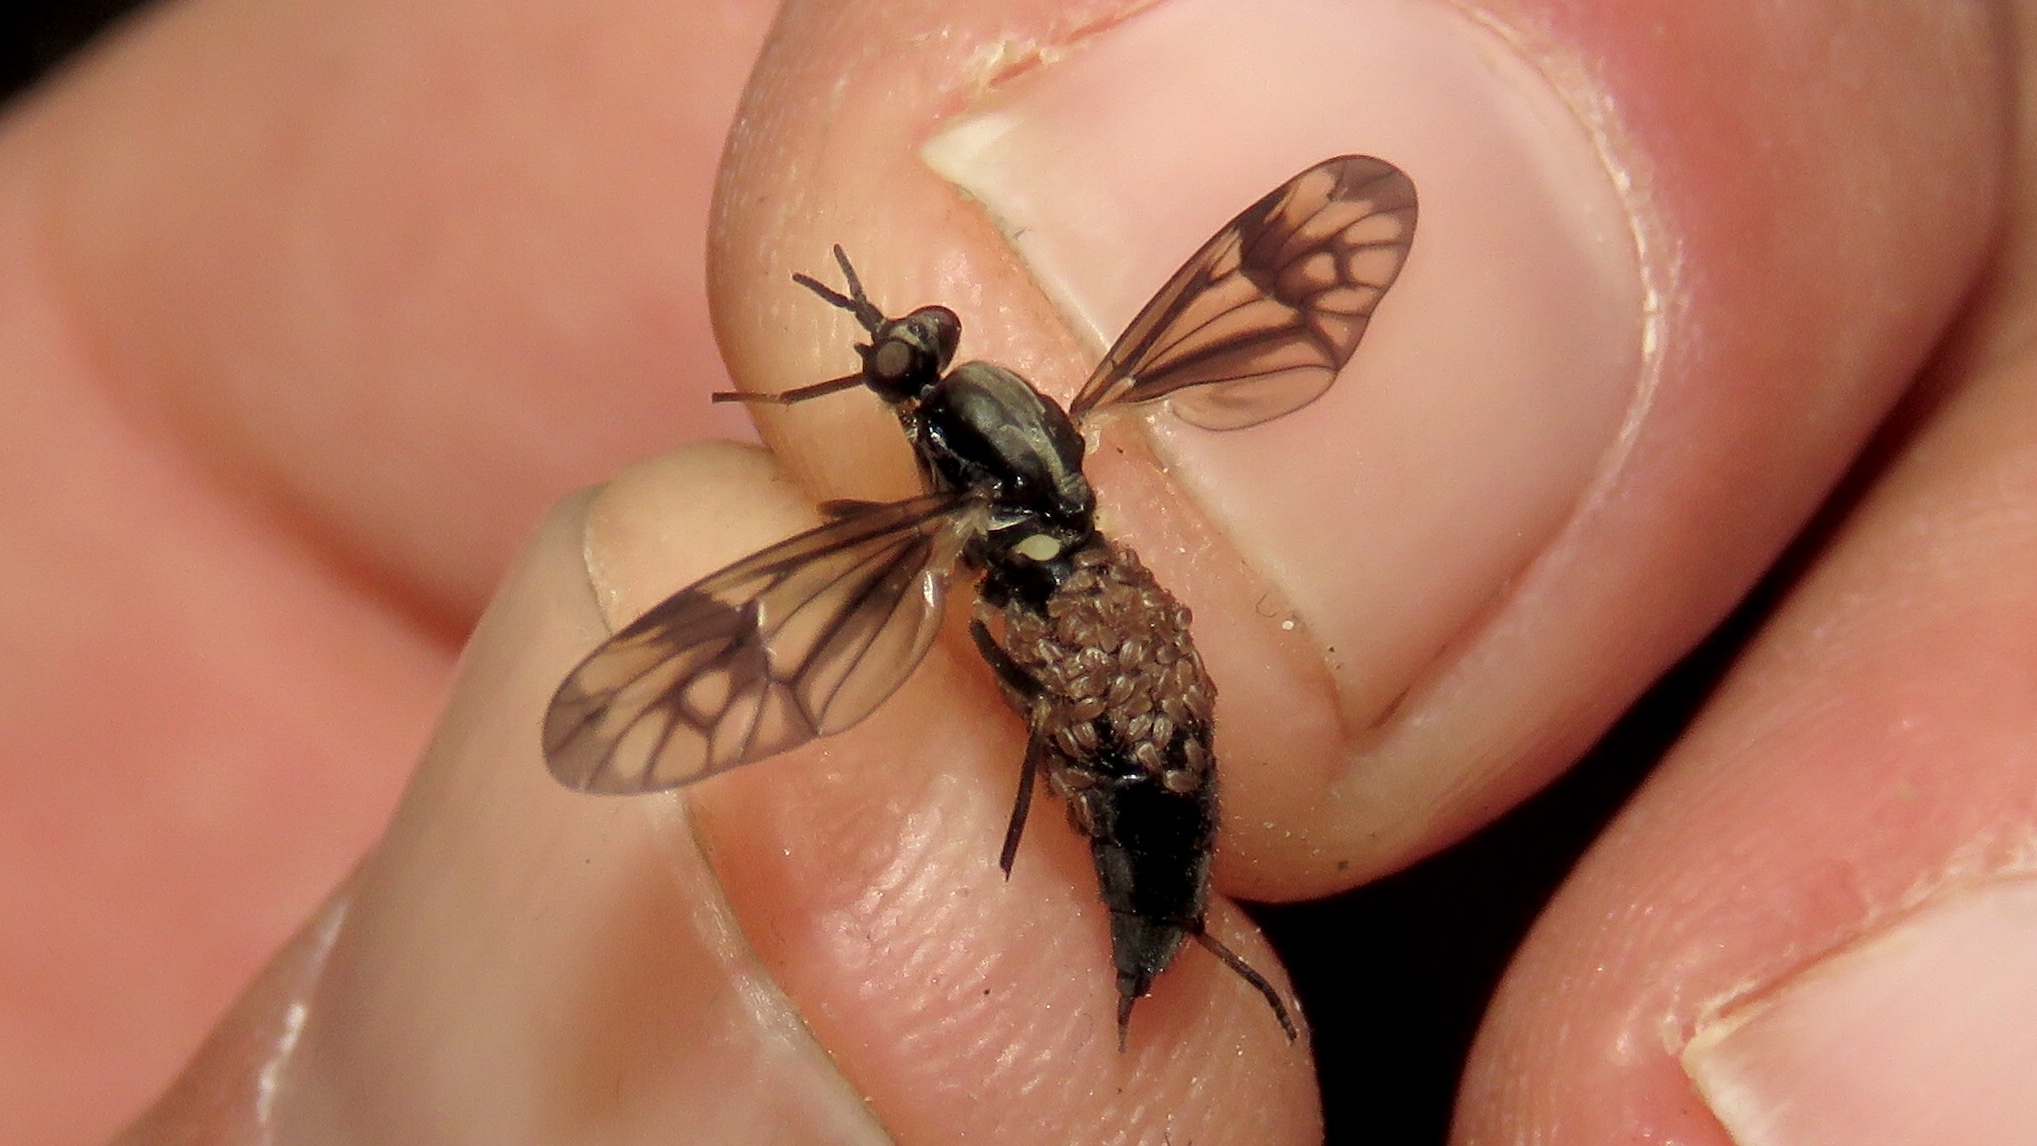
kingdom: Animalia
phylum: Arthropoda
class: Insecta
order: Diptera
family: Xylophagidae
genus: Xylophagus
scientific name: Xylophagus lugens
